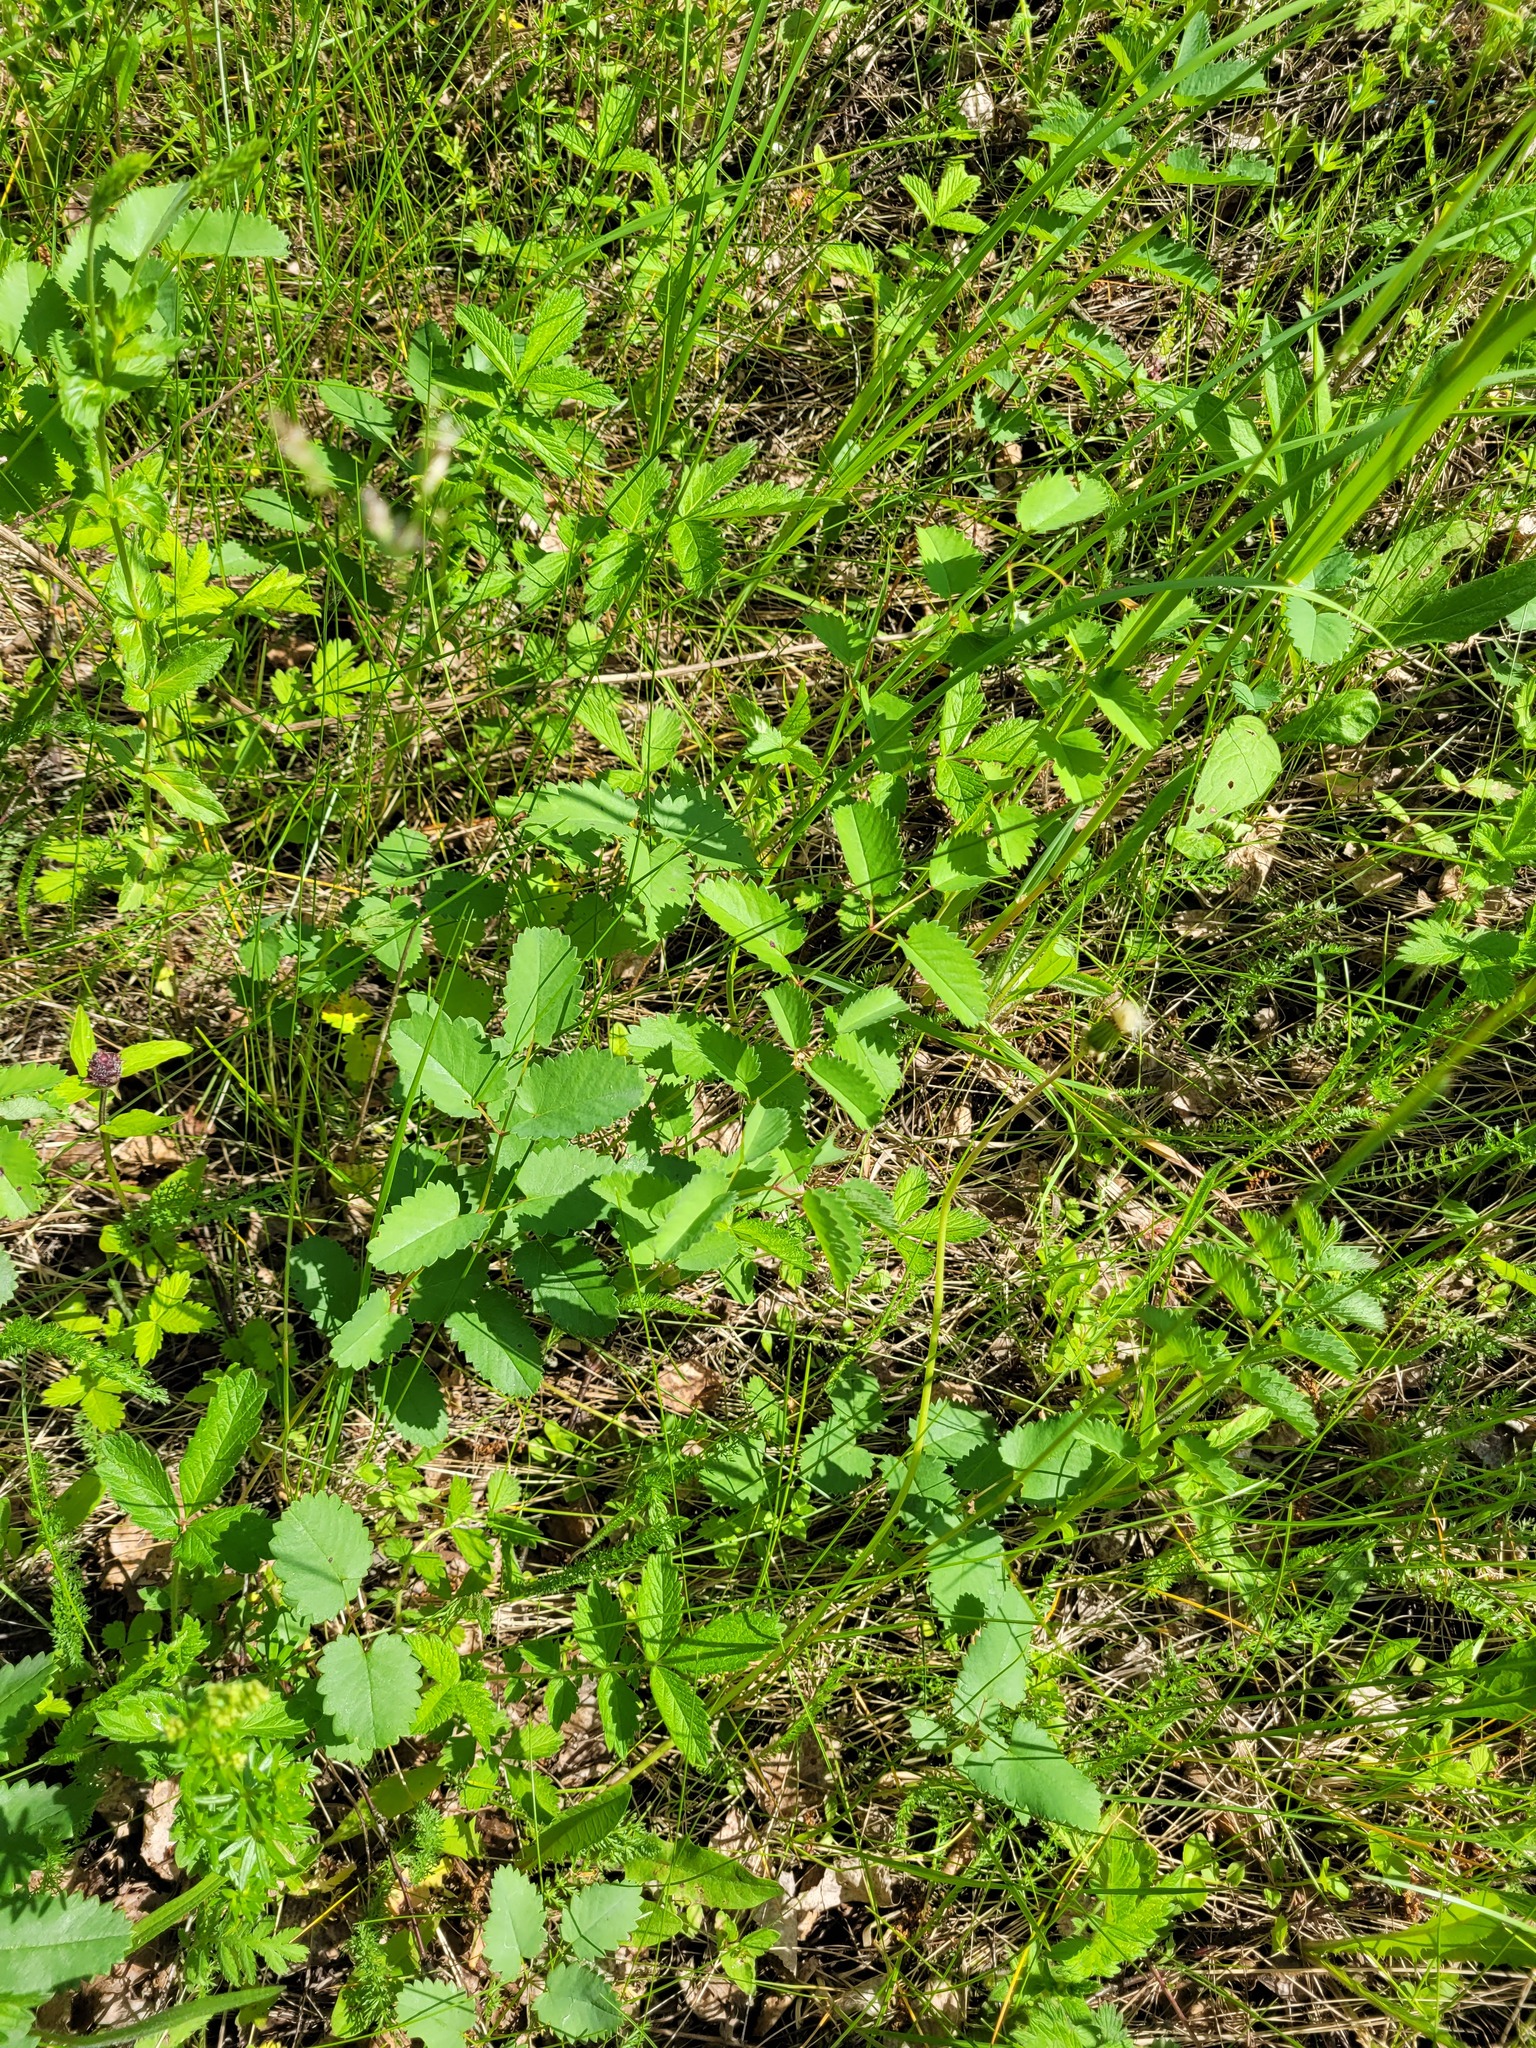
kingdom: Plantae
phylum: Tracheophyta
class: Magnoliopsida
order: Rosales
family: Rosaceae
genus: Sanguisorba
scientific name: Sanguisorba officinalis
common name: Great burnet
